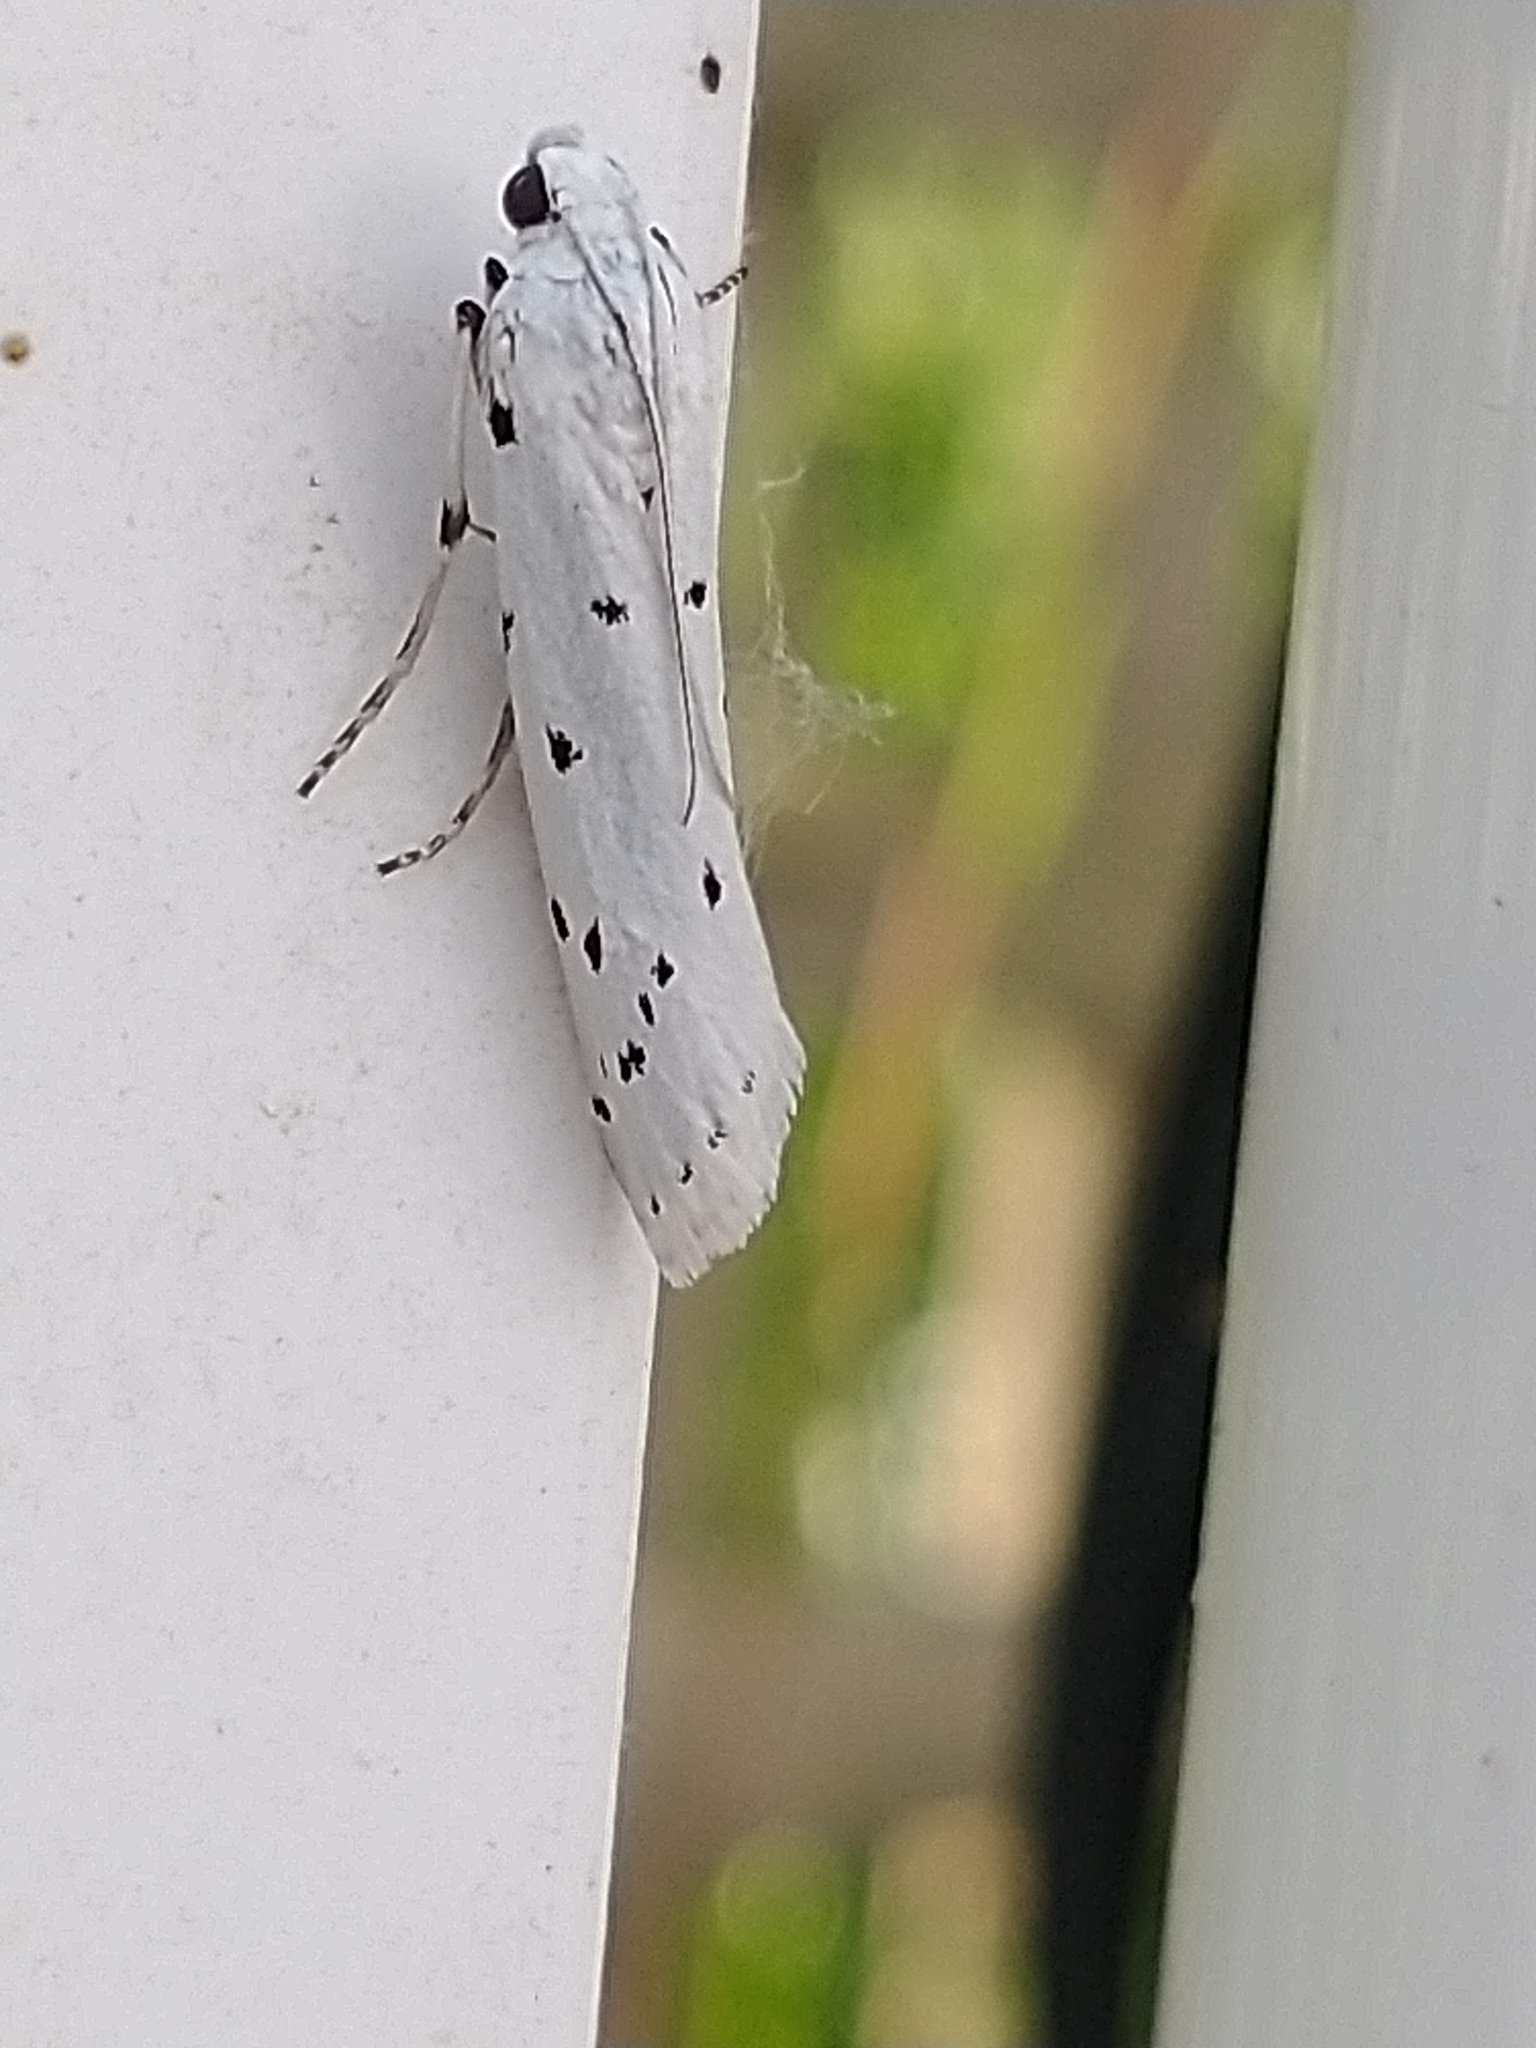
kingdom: Animalia
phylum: Arthropoda
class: Insecta
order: Lepidoptera
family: Pyralidae
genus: Myelois
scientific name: Myelois circumvoluta
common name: Thistle ermine
